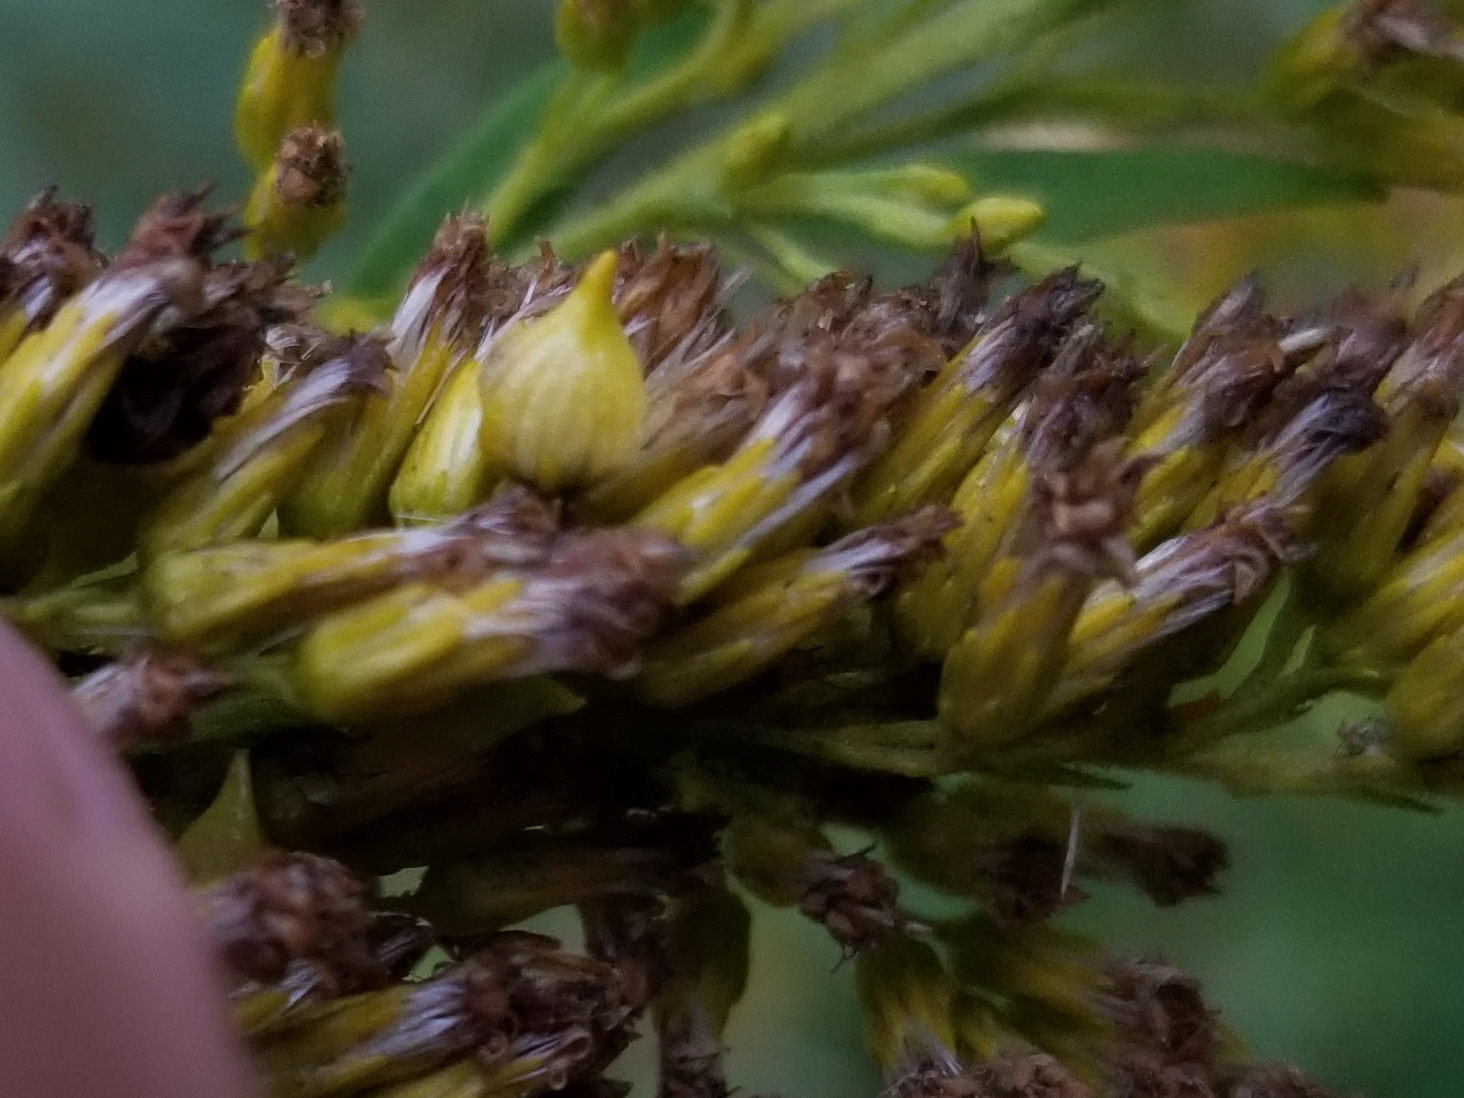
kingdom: Animalia
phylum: Arthropoda
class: Insecta
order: Diptera
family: Cecidomyiidae
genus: Schizomyia
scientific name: Schizomyia racemicola
